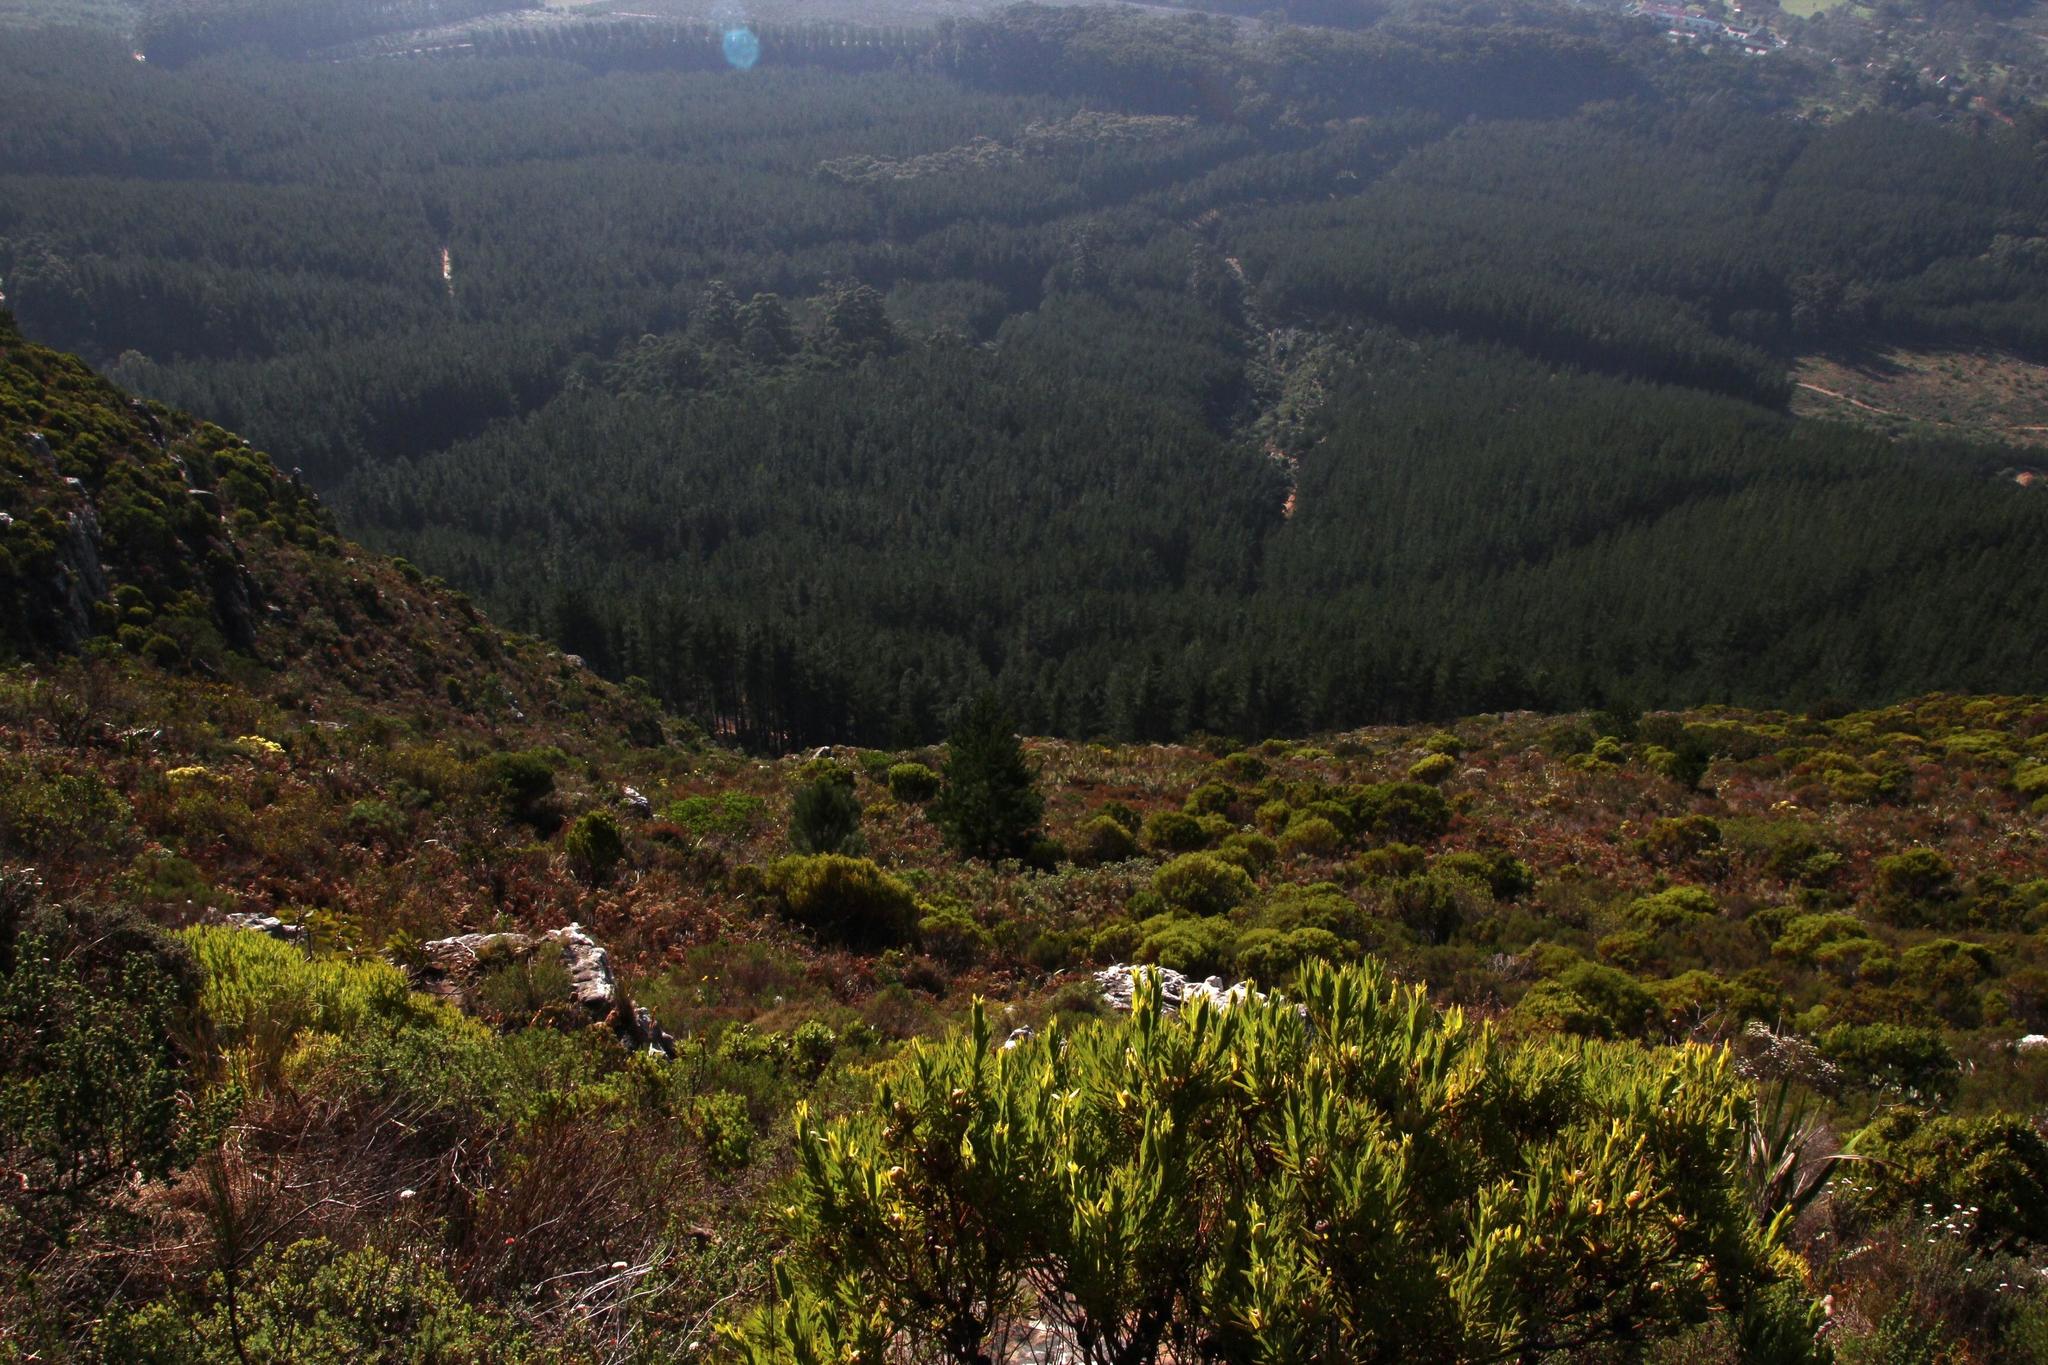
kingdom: Plantae
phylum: Tracheophyta
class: Pinopsida
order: Pinales
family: Pinaceae
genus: Pinus
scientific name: Pinus radiata
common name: Monterey pine
